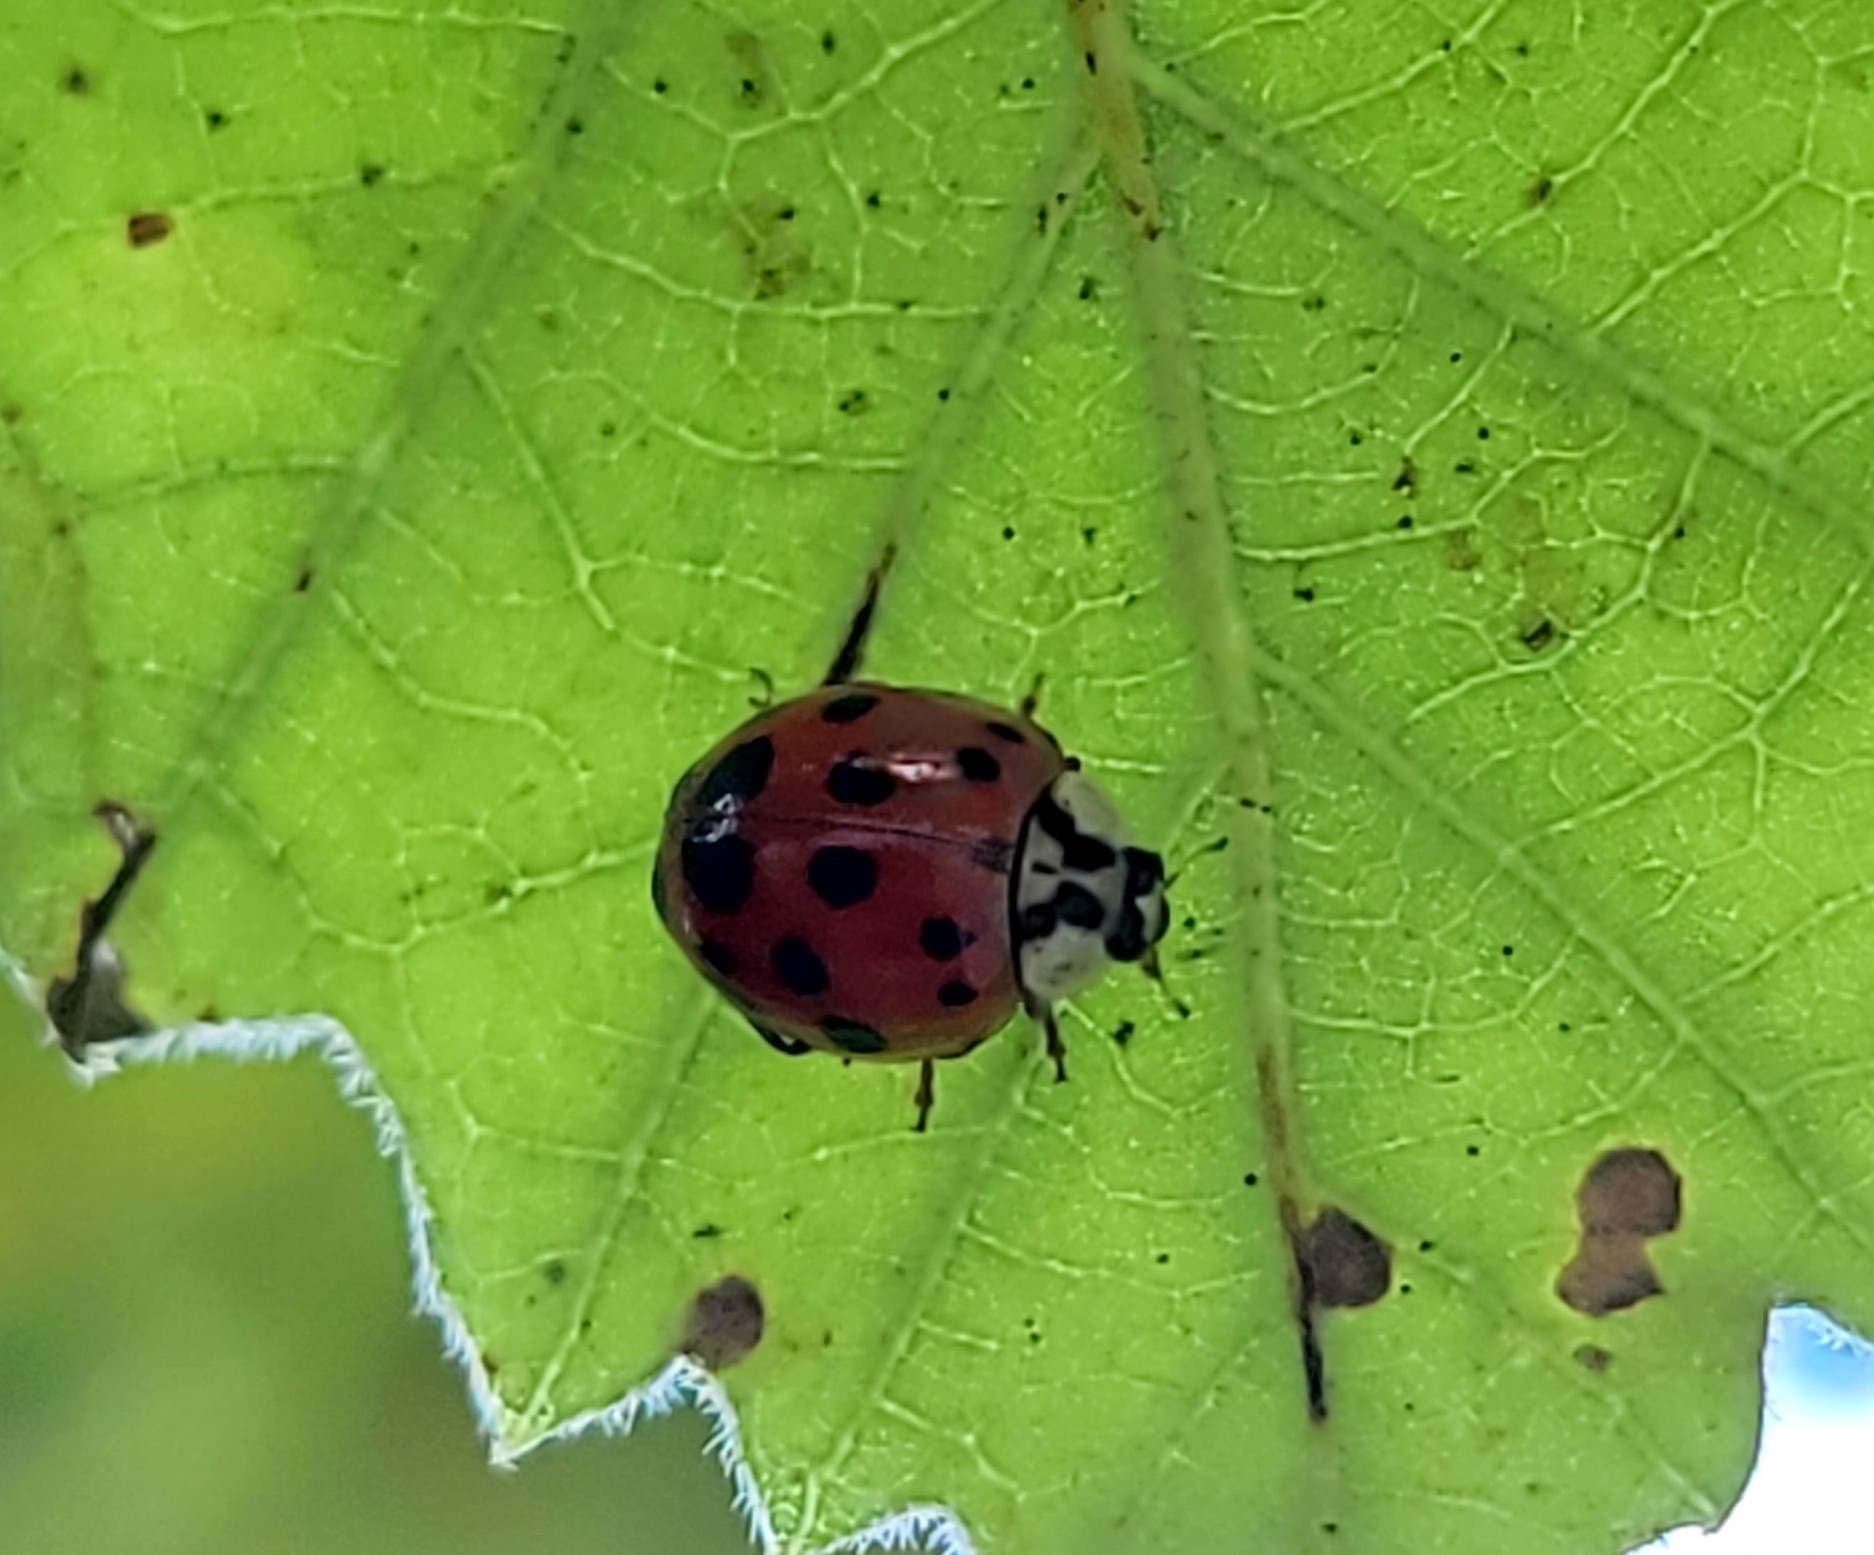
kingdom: Animalia
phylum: Arthropoda
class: Insecta
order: Coleoptera
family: Coccinellidae
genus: Harmonia
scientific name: Harmonia axyridis
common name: Harlequin ladybird
